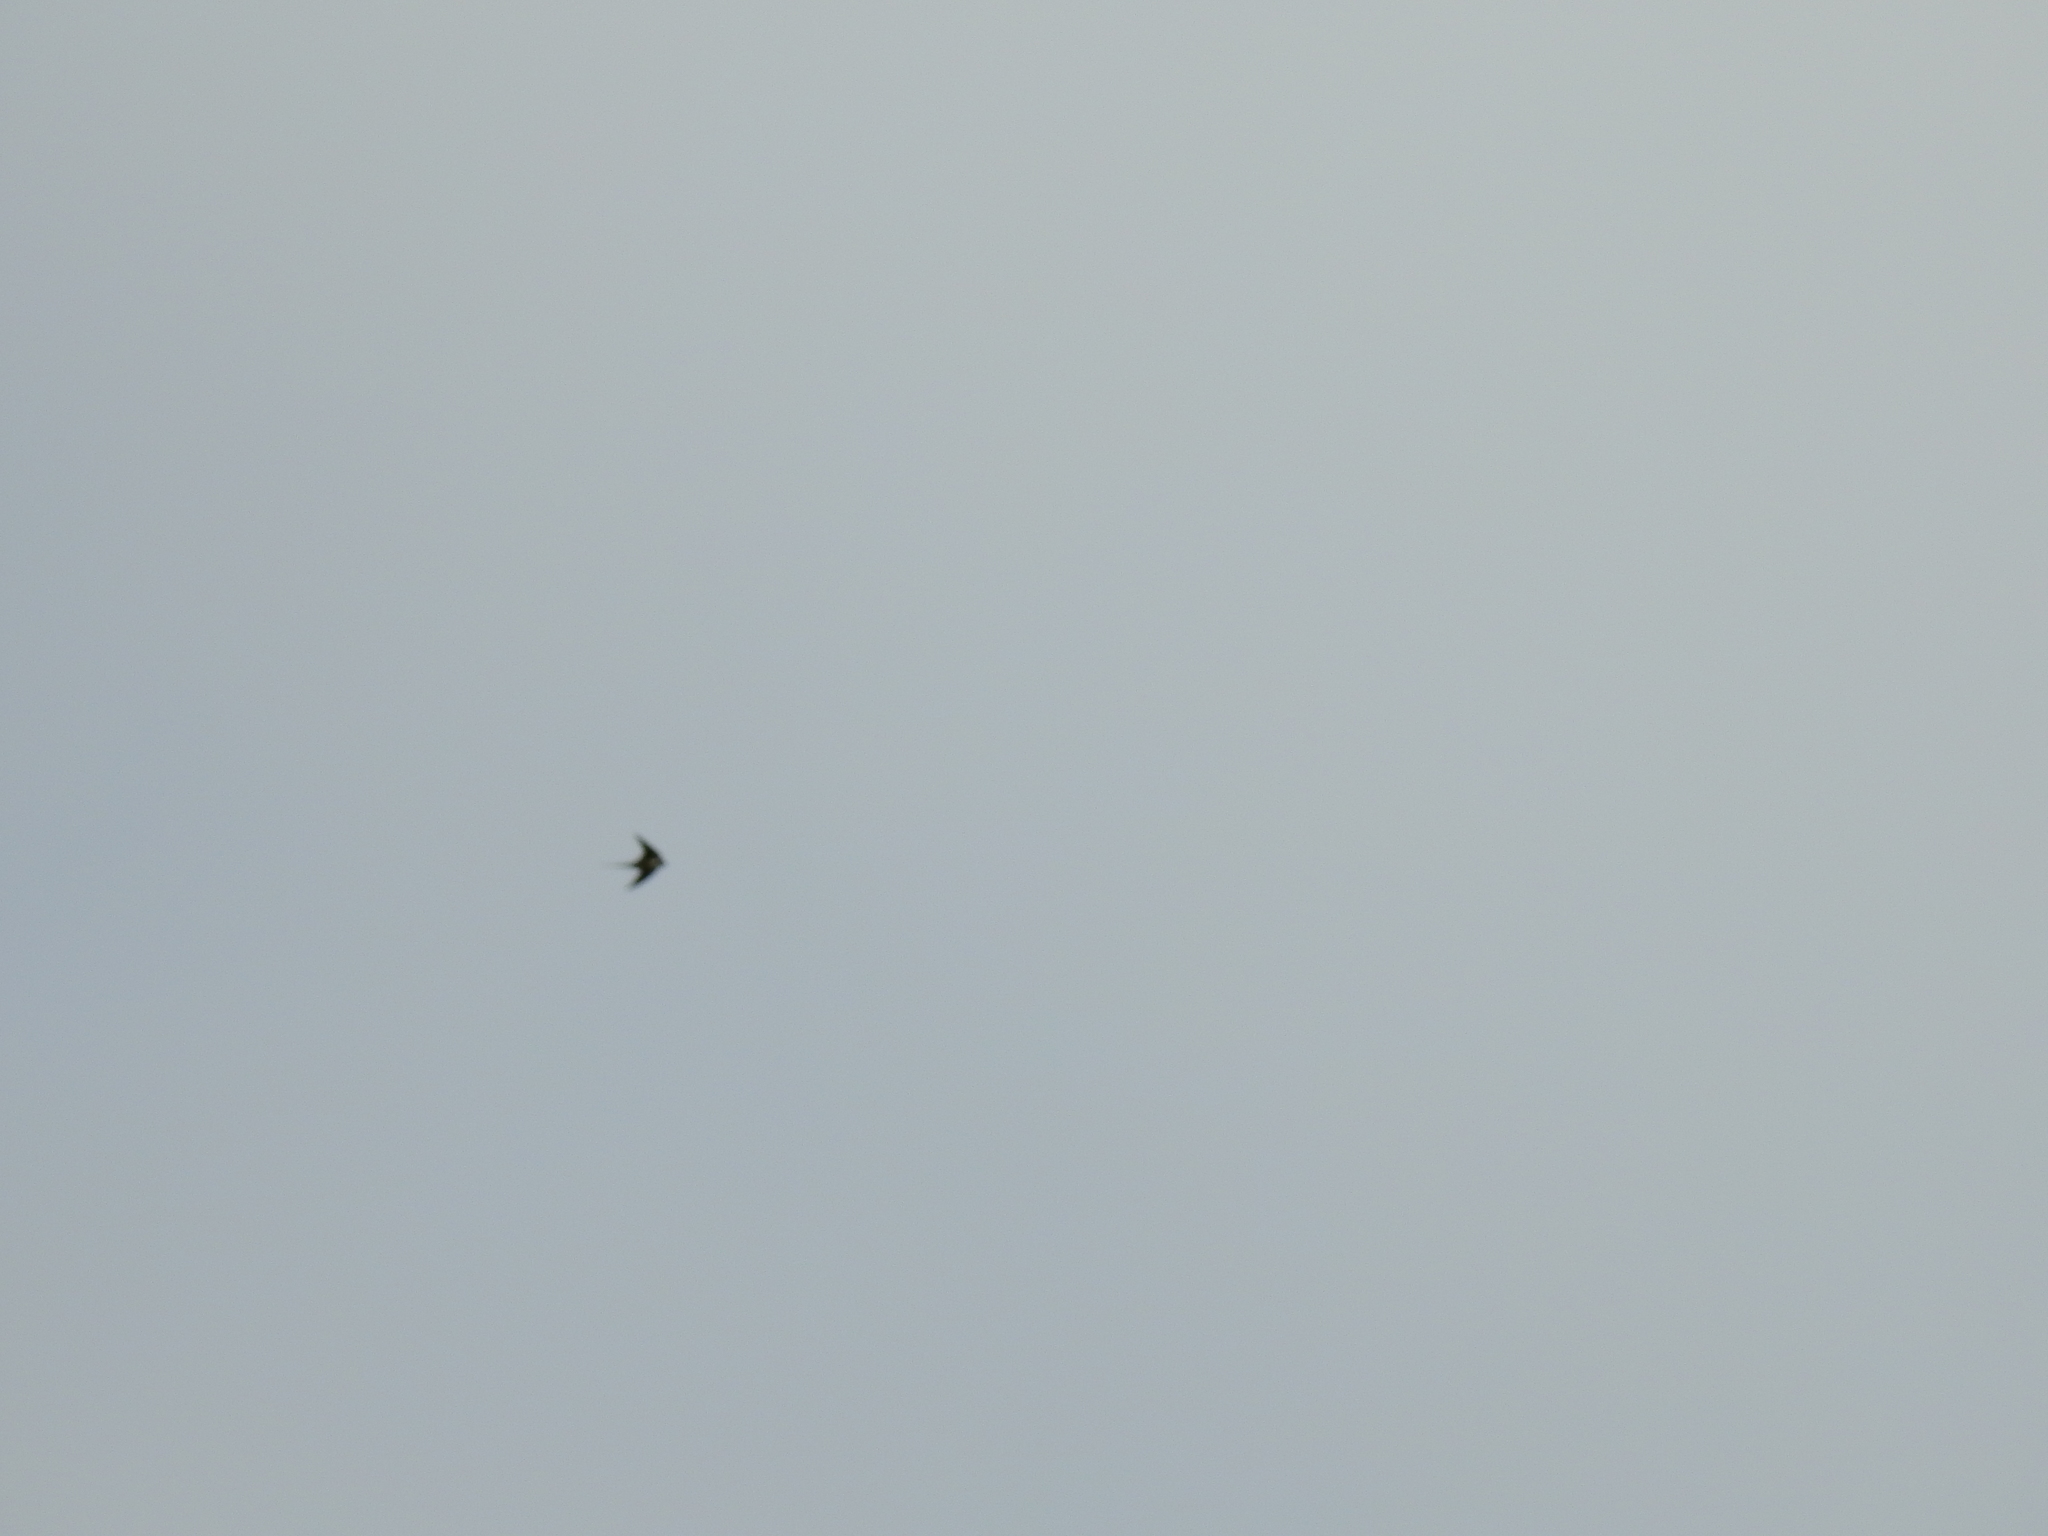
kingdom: Animalia
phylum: Chordata
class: Aves
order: Passeriformes
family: Hirundinidae
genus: Hirundo
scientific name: Hirundo rustica
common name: Barn swallow
